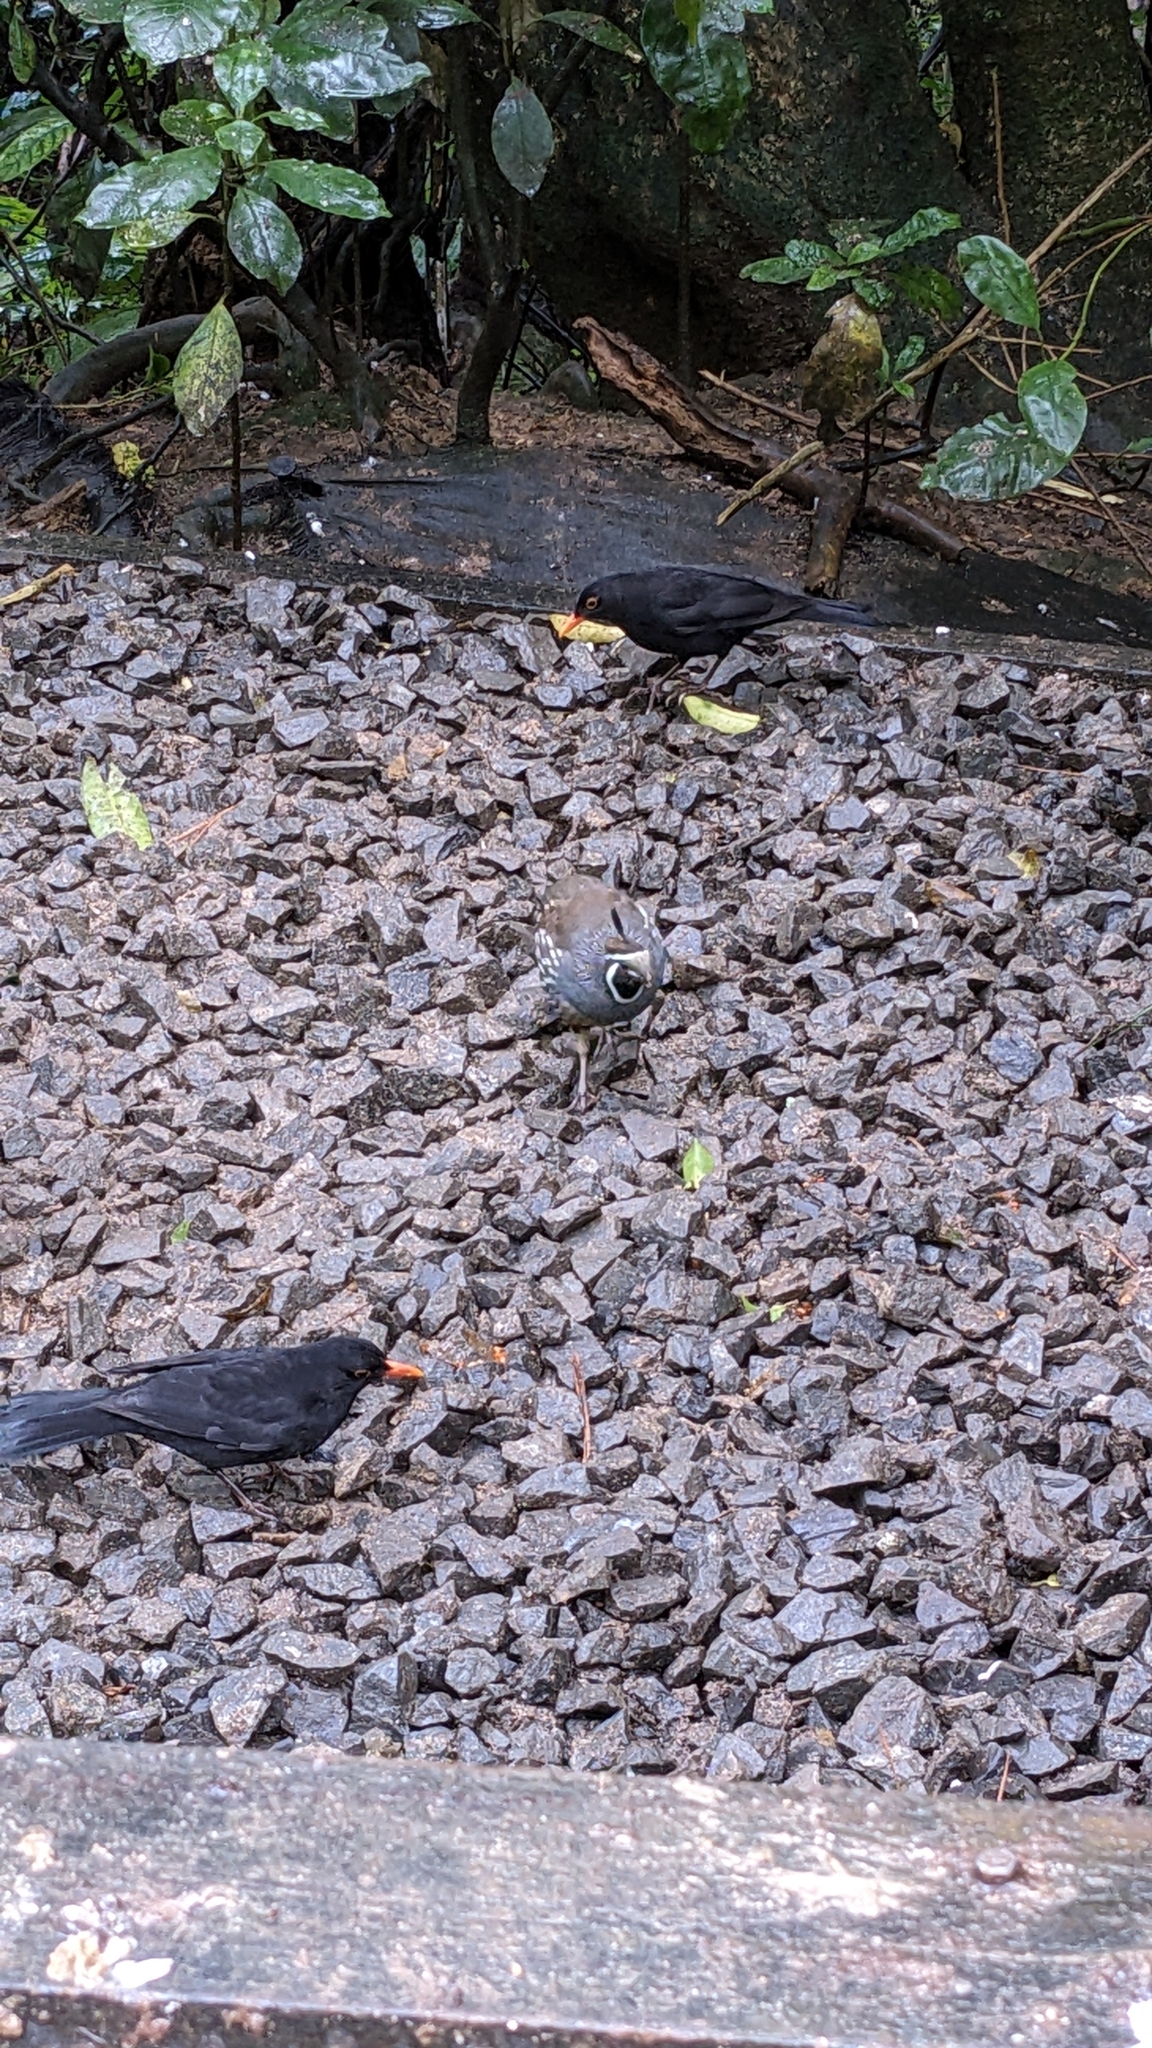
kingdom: Animalia
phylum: Chordata
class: Aves
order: Galliformes
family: Odontophoridae
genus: Callipepla
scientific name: Callipepla californica
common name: California quail
